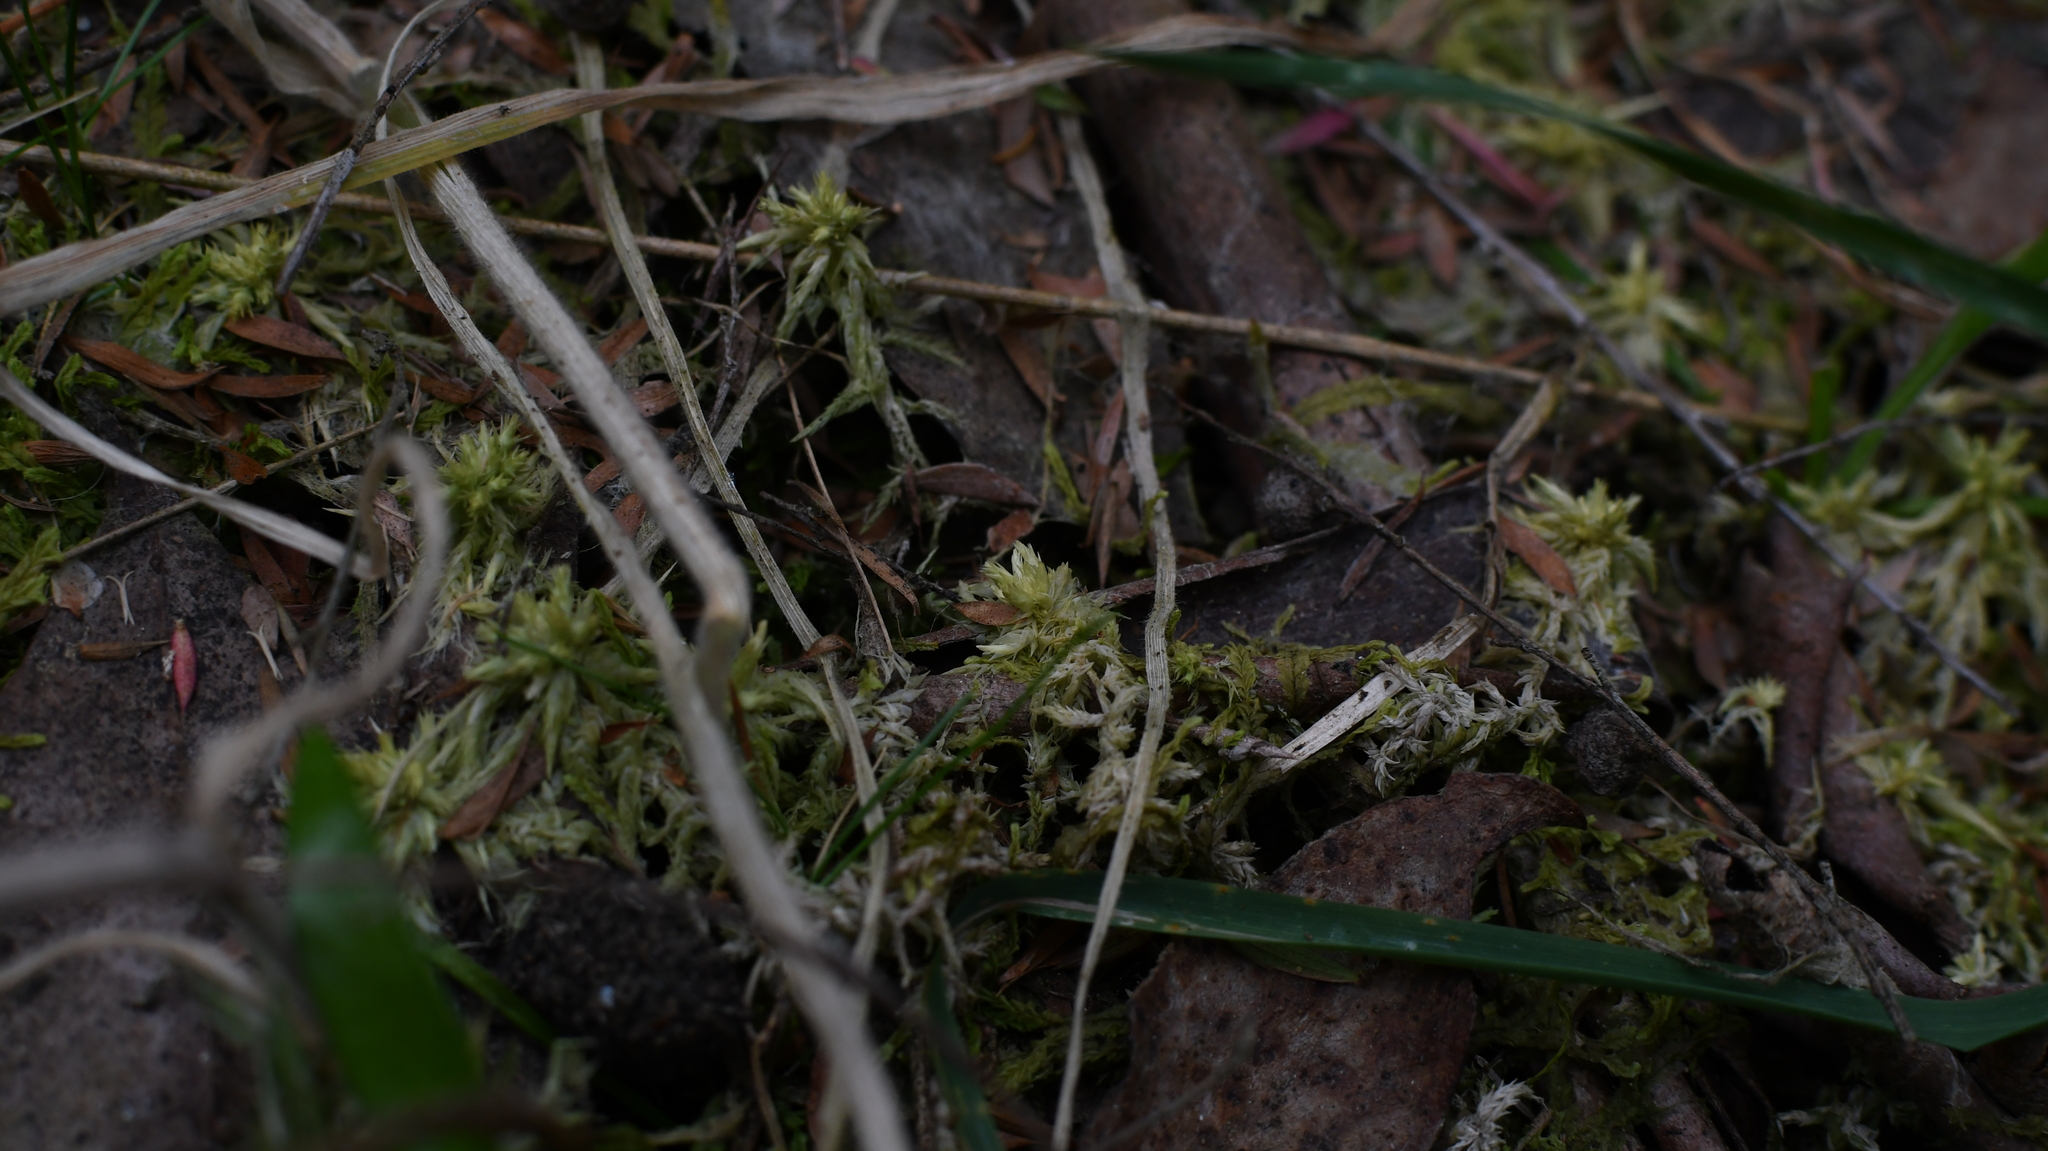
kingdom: Plantae
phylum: Bryophyta
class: Sphagnopsida
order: Sphagnales
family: Sphagnaceae
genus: Sphagnum
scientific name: Sphagnum novozelandicum
